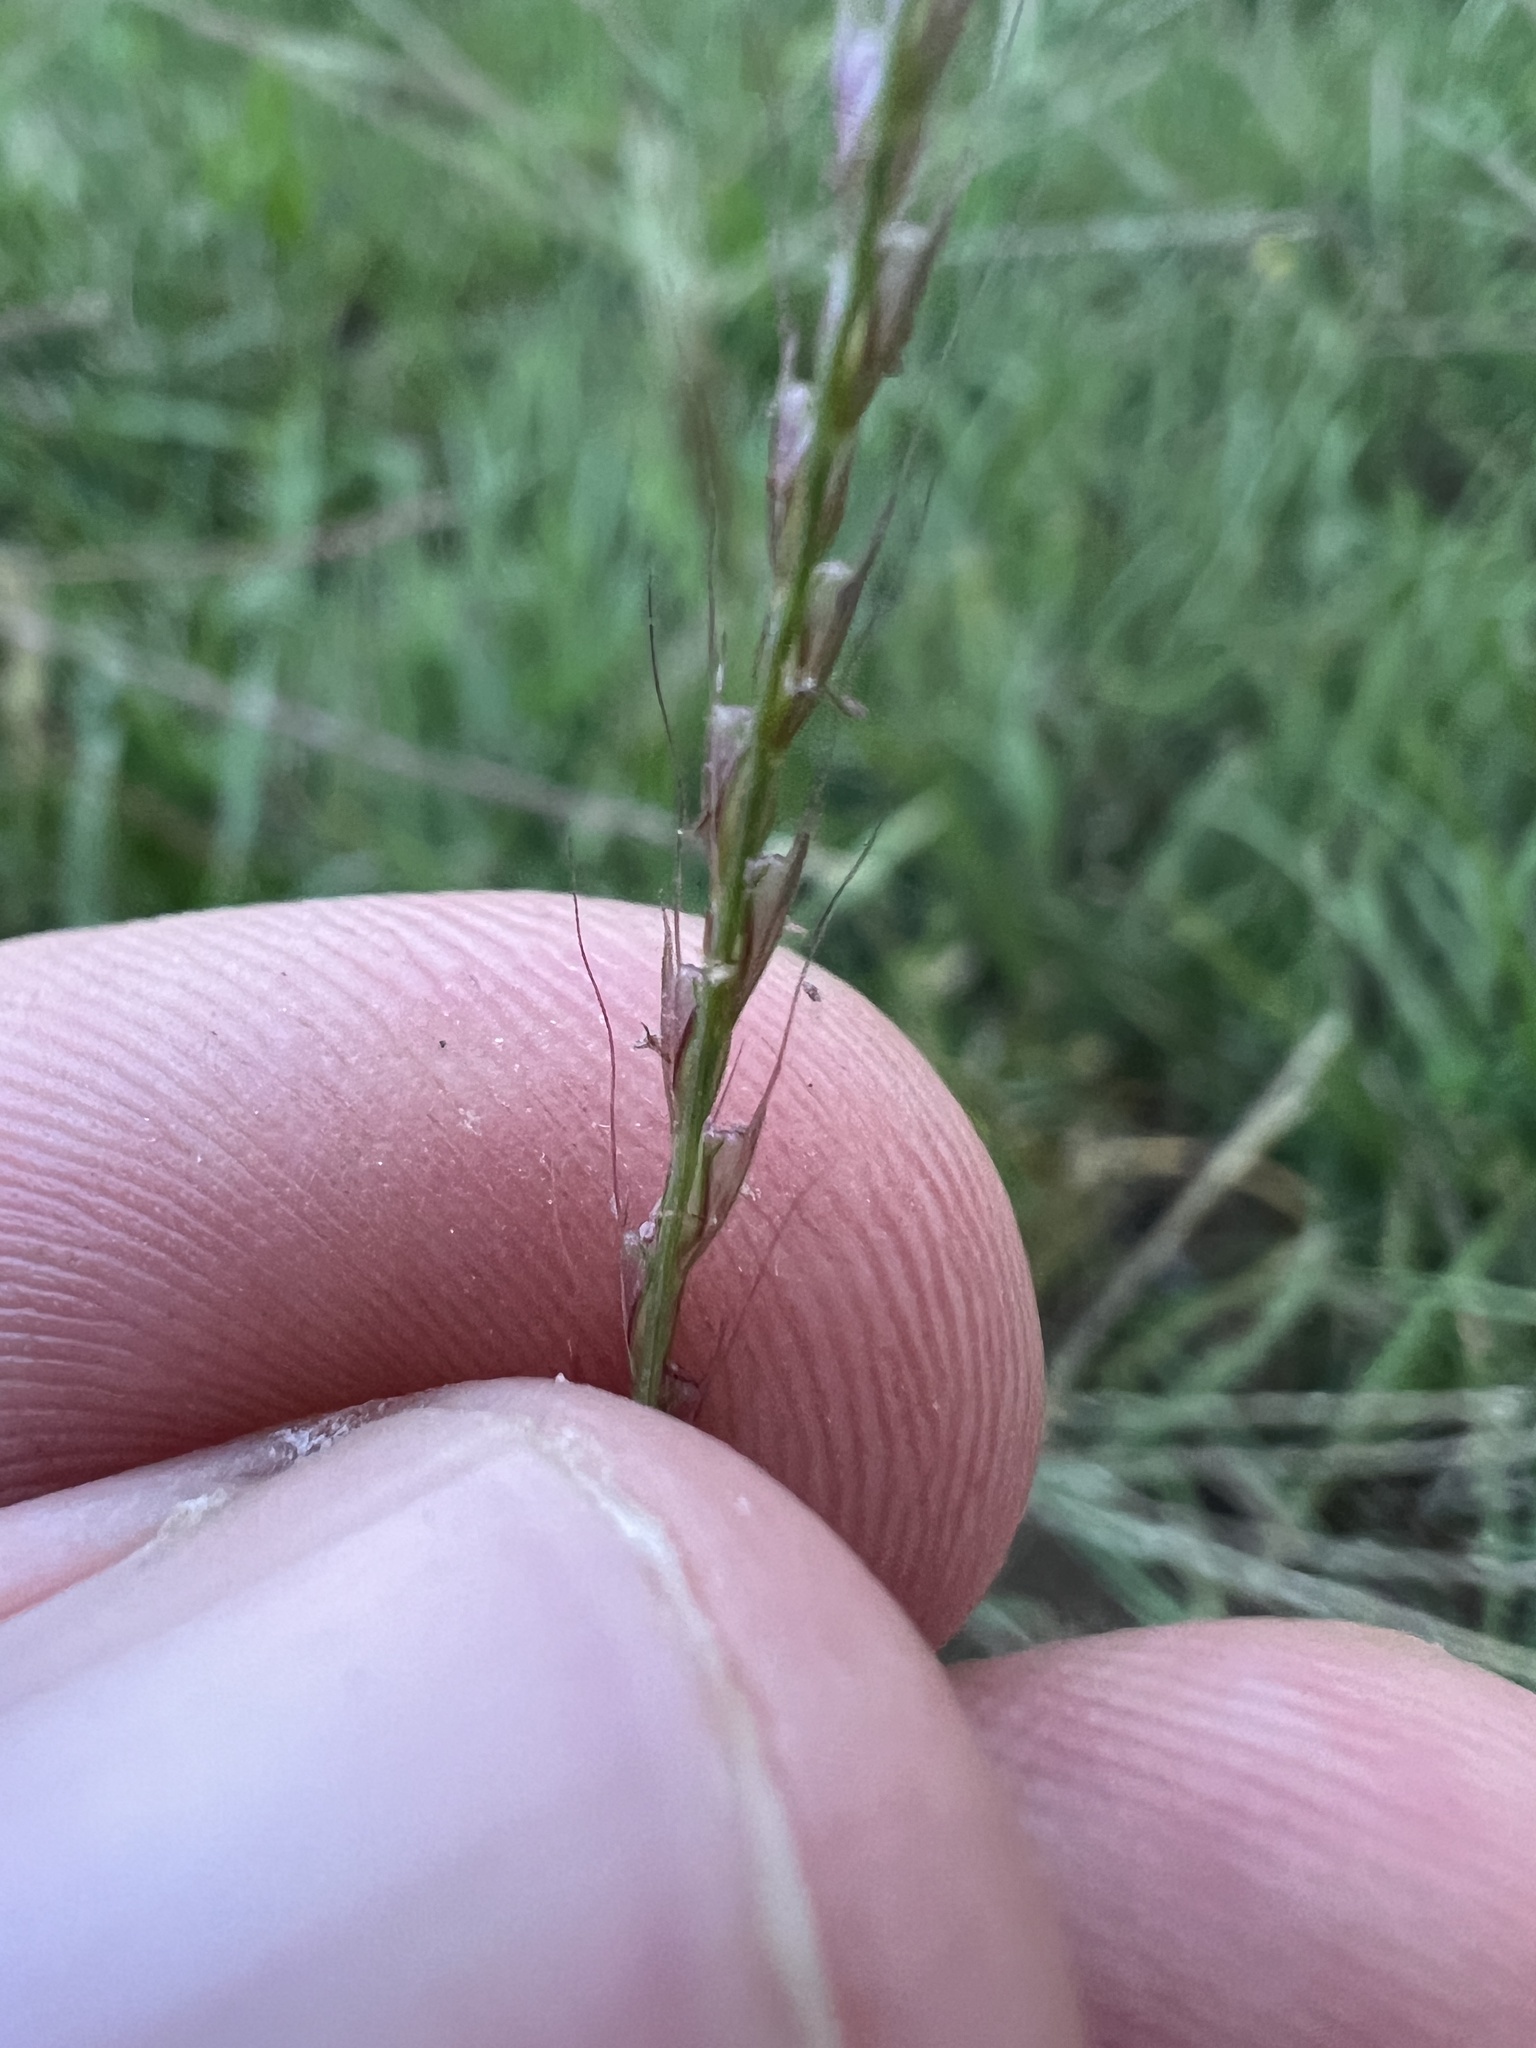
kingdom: Plantae
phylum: Tracheophyta
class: Liliopsida
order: Poales
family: Poaceae
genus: Chloris
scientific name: Chloris verticillata
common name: Tumble windmill grass
